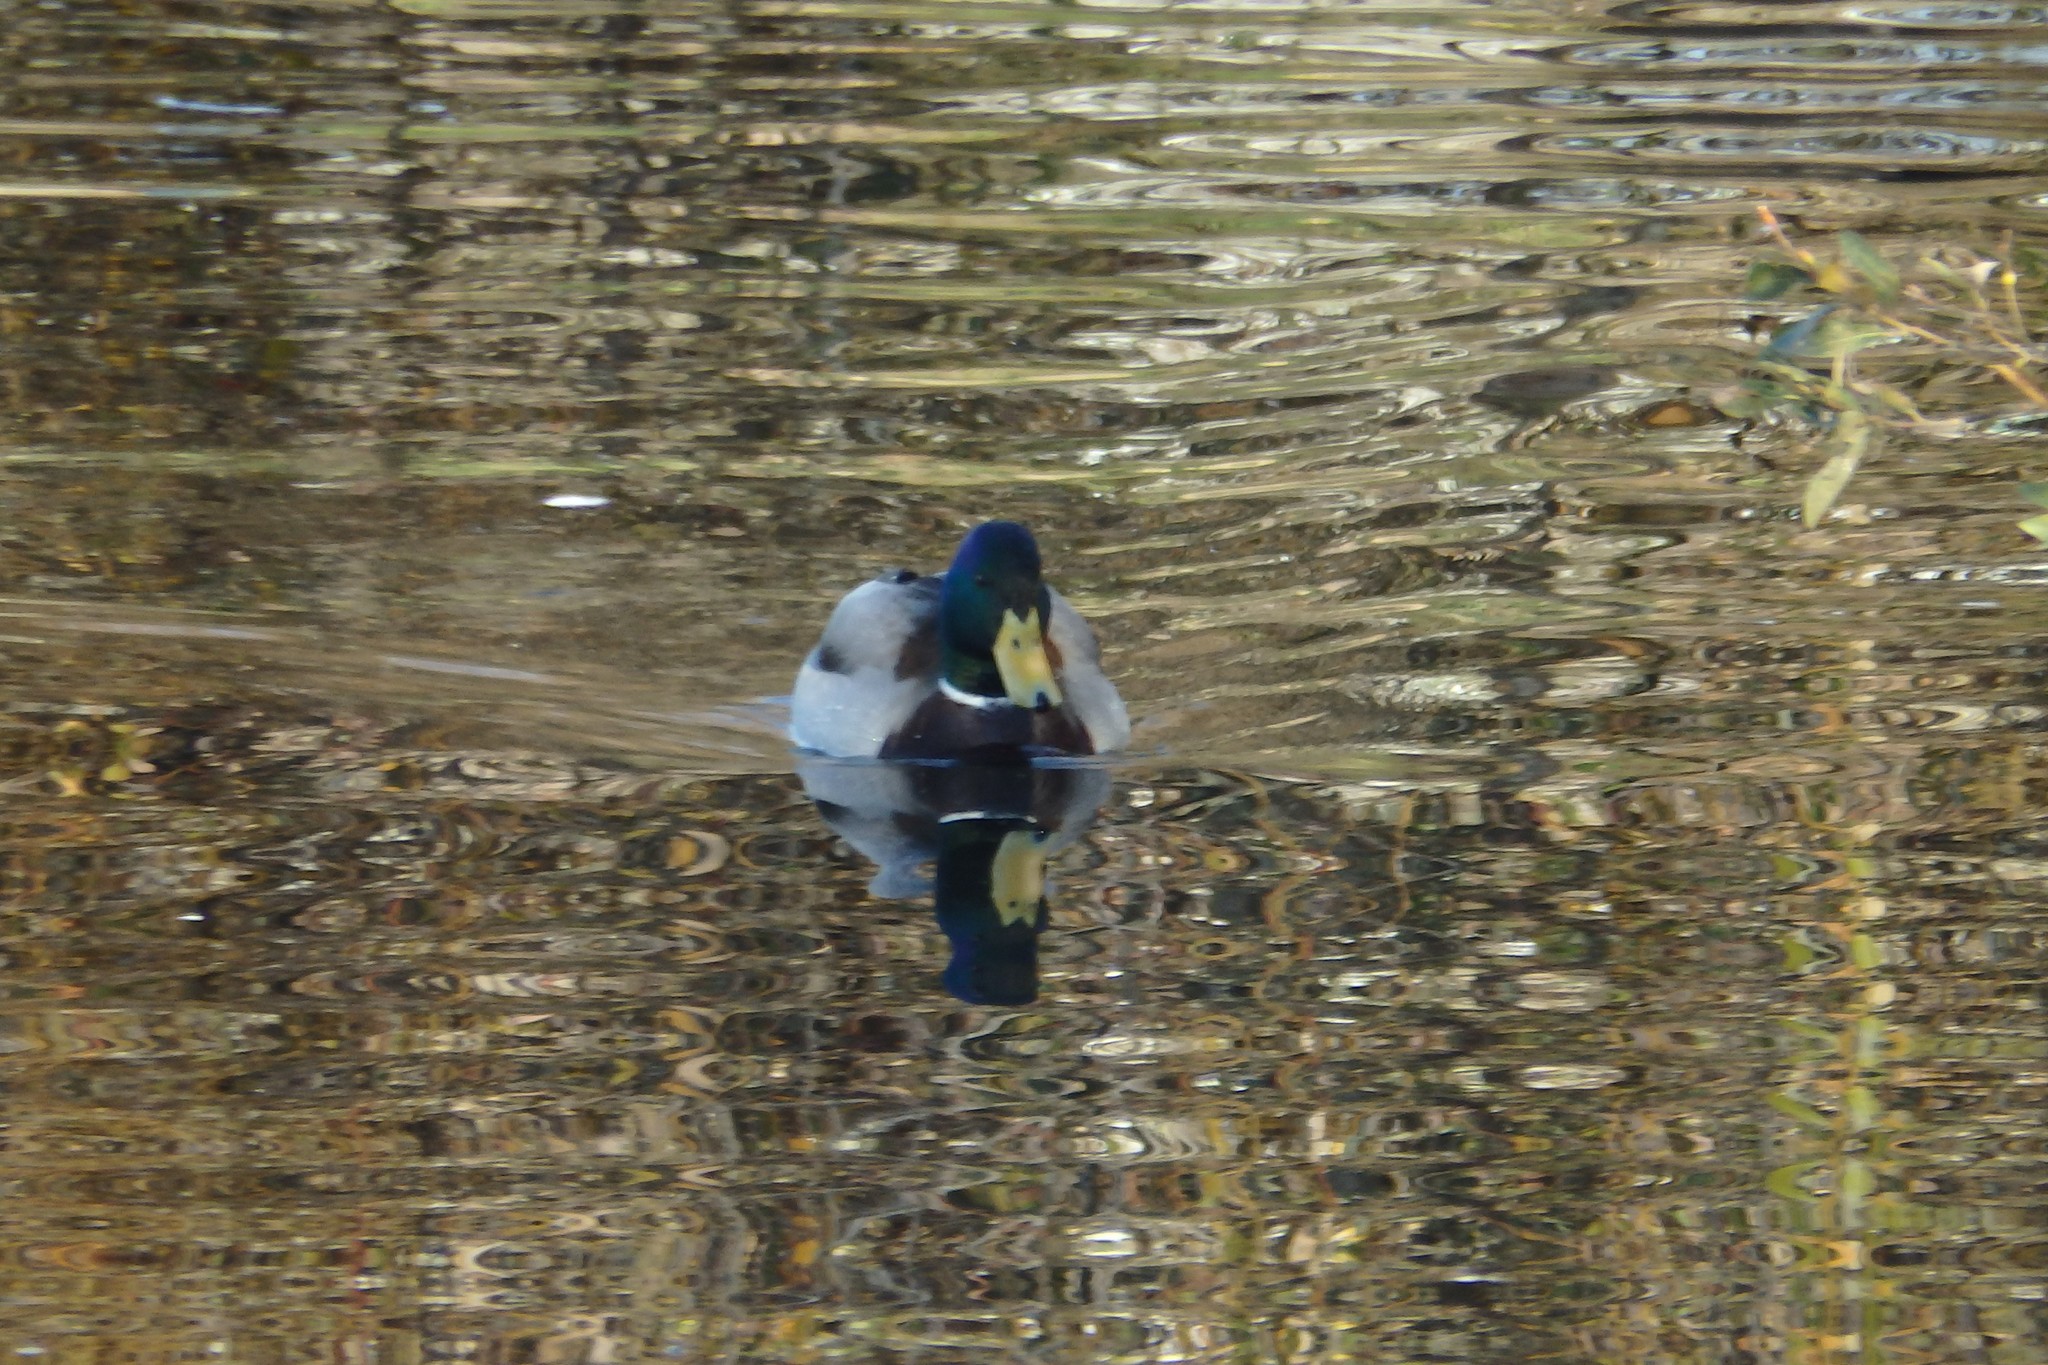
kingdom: Animalia
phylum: Chordata
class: Aves
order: Anseriformes
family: Anatidae
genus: Anas
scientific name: Anas platyrhynchos
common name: Mallard
